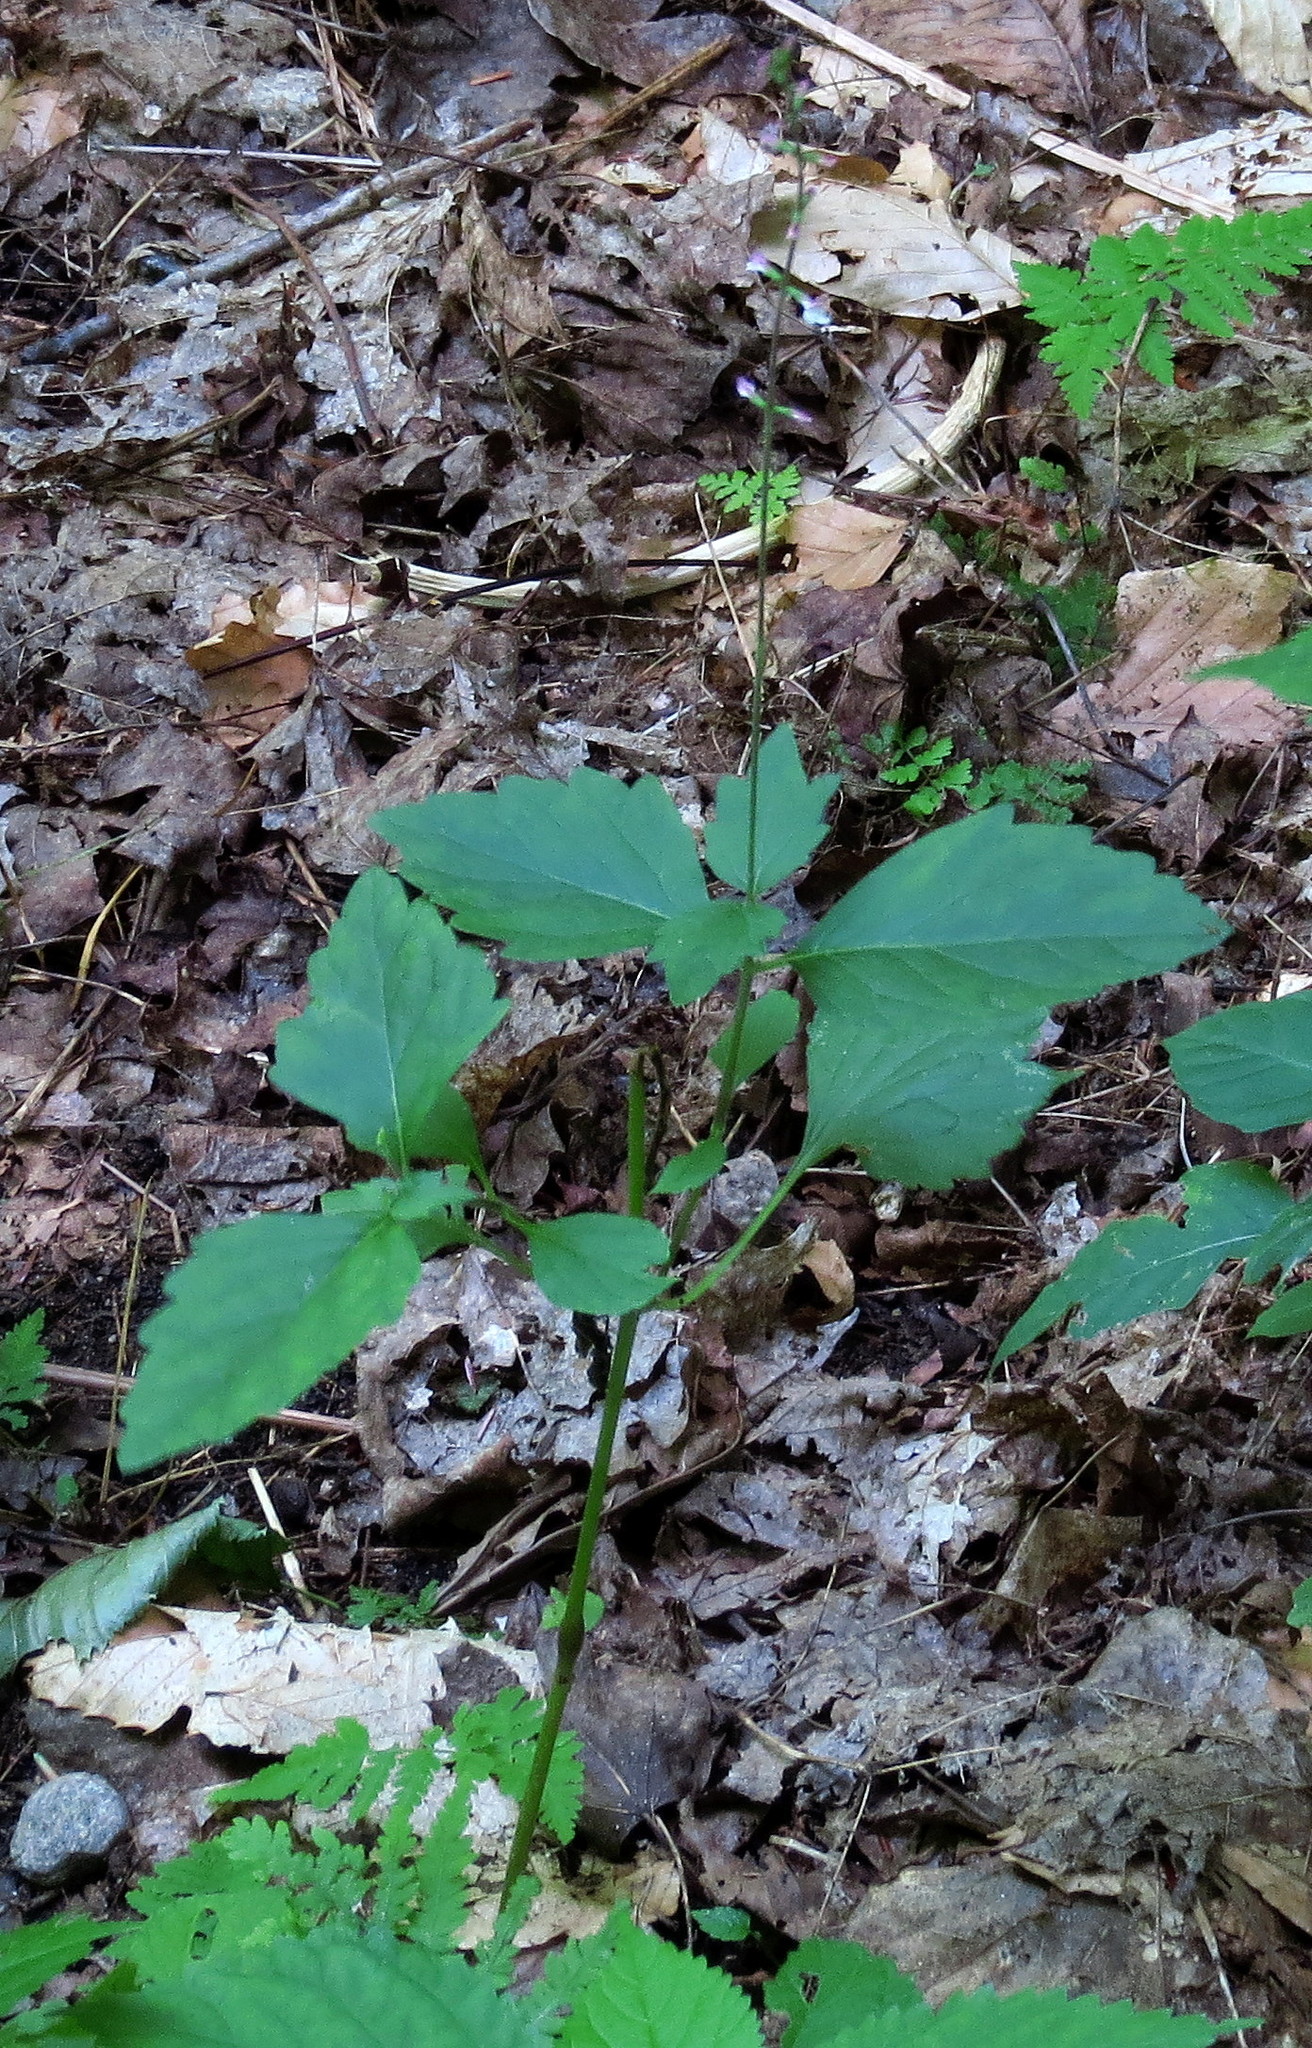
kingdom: Plantae
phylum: Tracheophyta
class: Magnoliopsida
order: Lamiales
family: Phrymaceae
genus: Phryma
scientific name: Phryma leptostachya
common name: American lopseed
